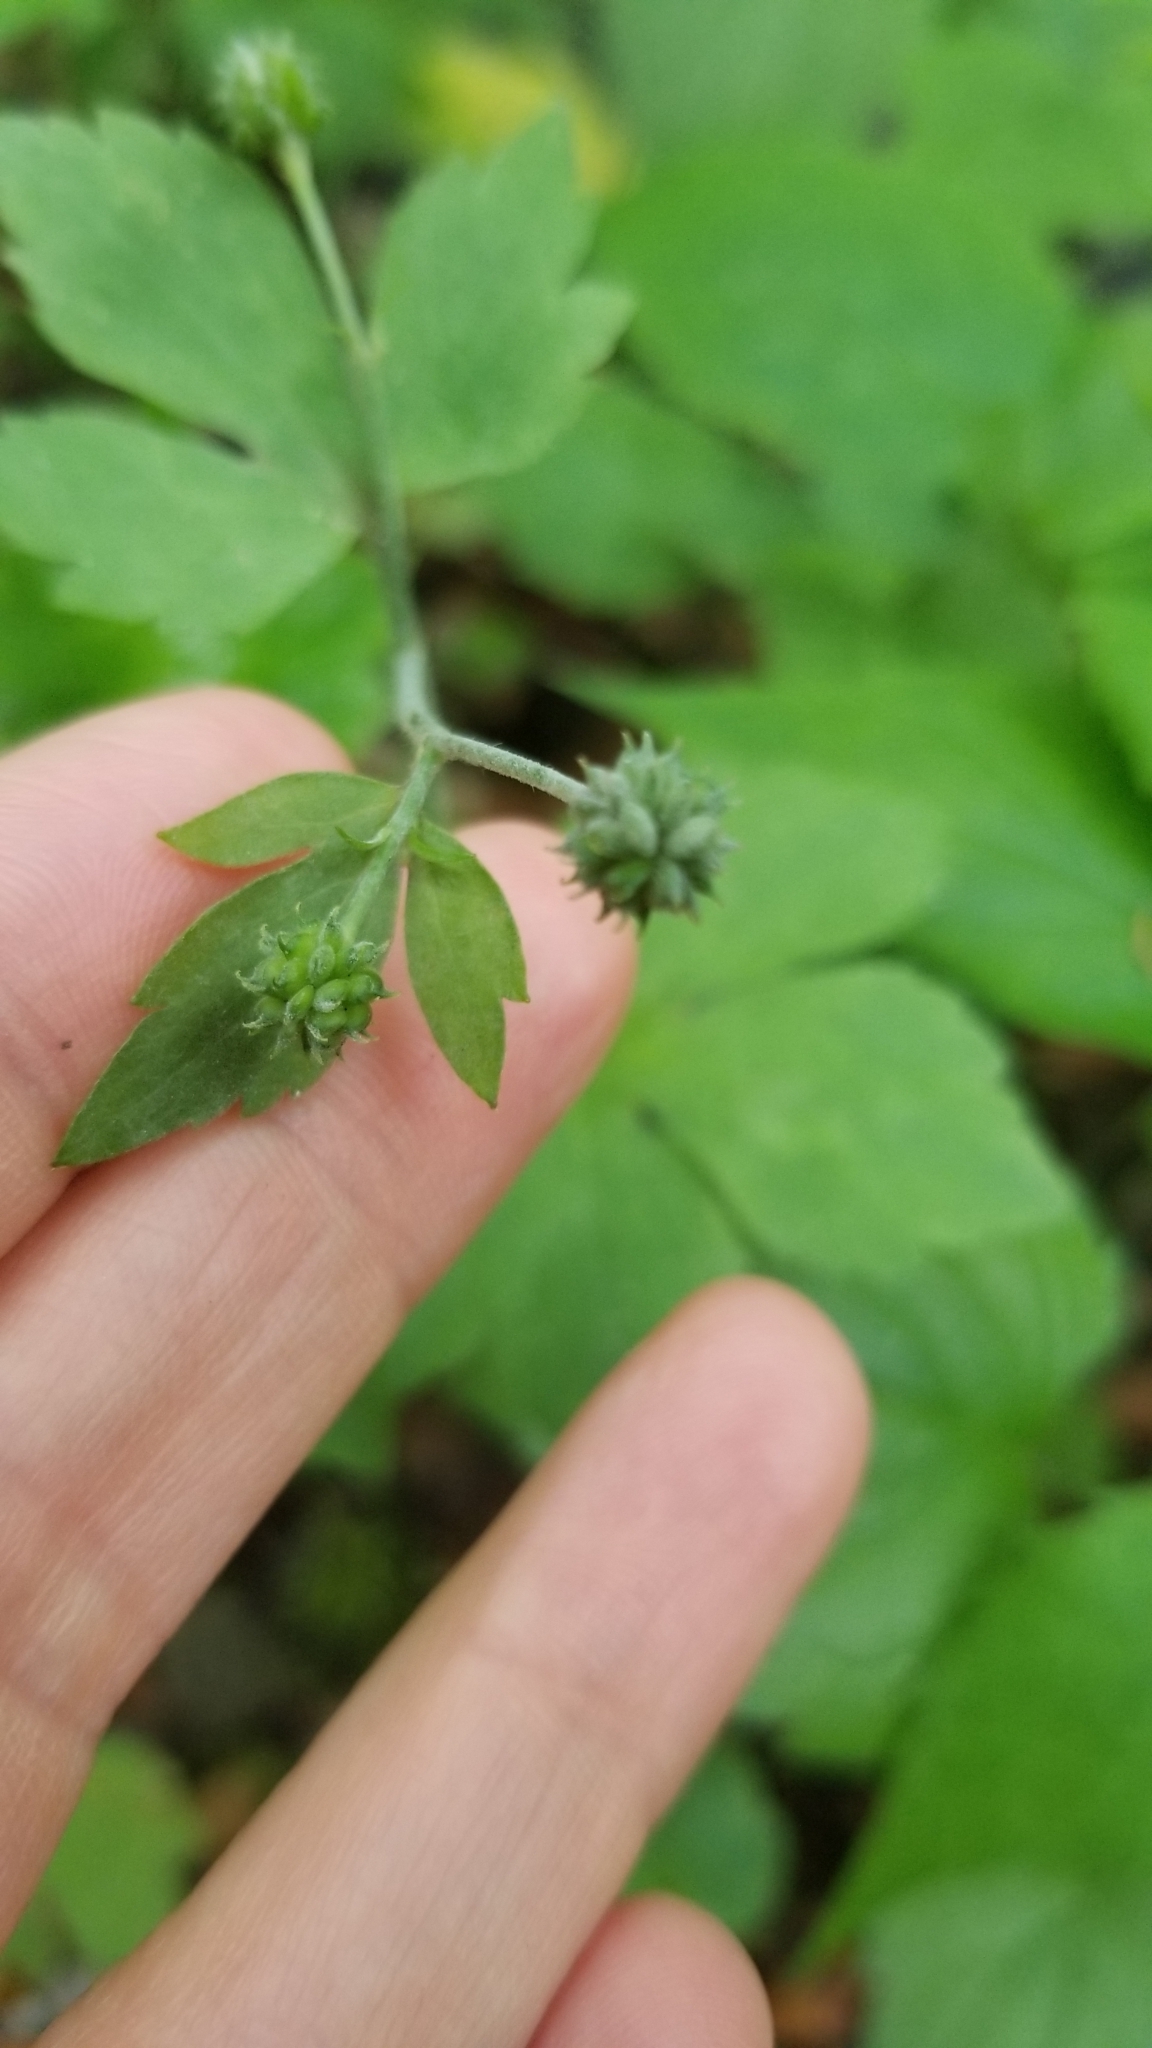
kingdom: Plantae
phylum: Tracheophyta
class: Magnoliopsida
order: Ranunculales
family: Ranunculaceae
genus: Ranunculus
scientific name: Ranunculus recurvatus
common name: Blisterwort
